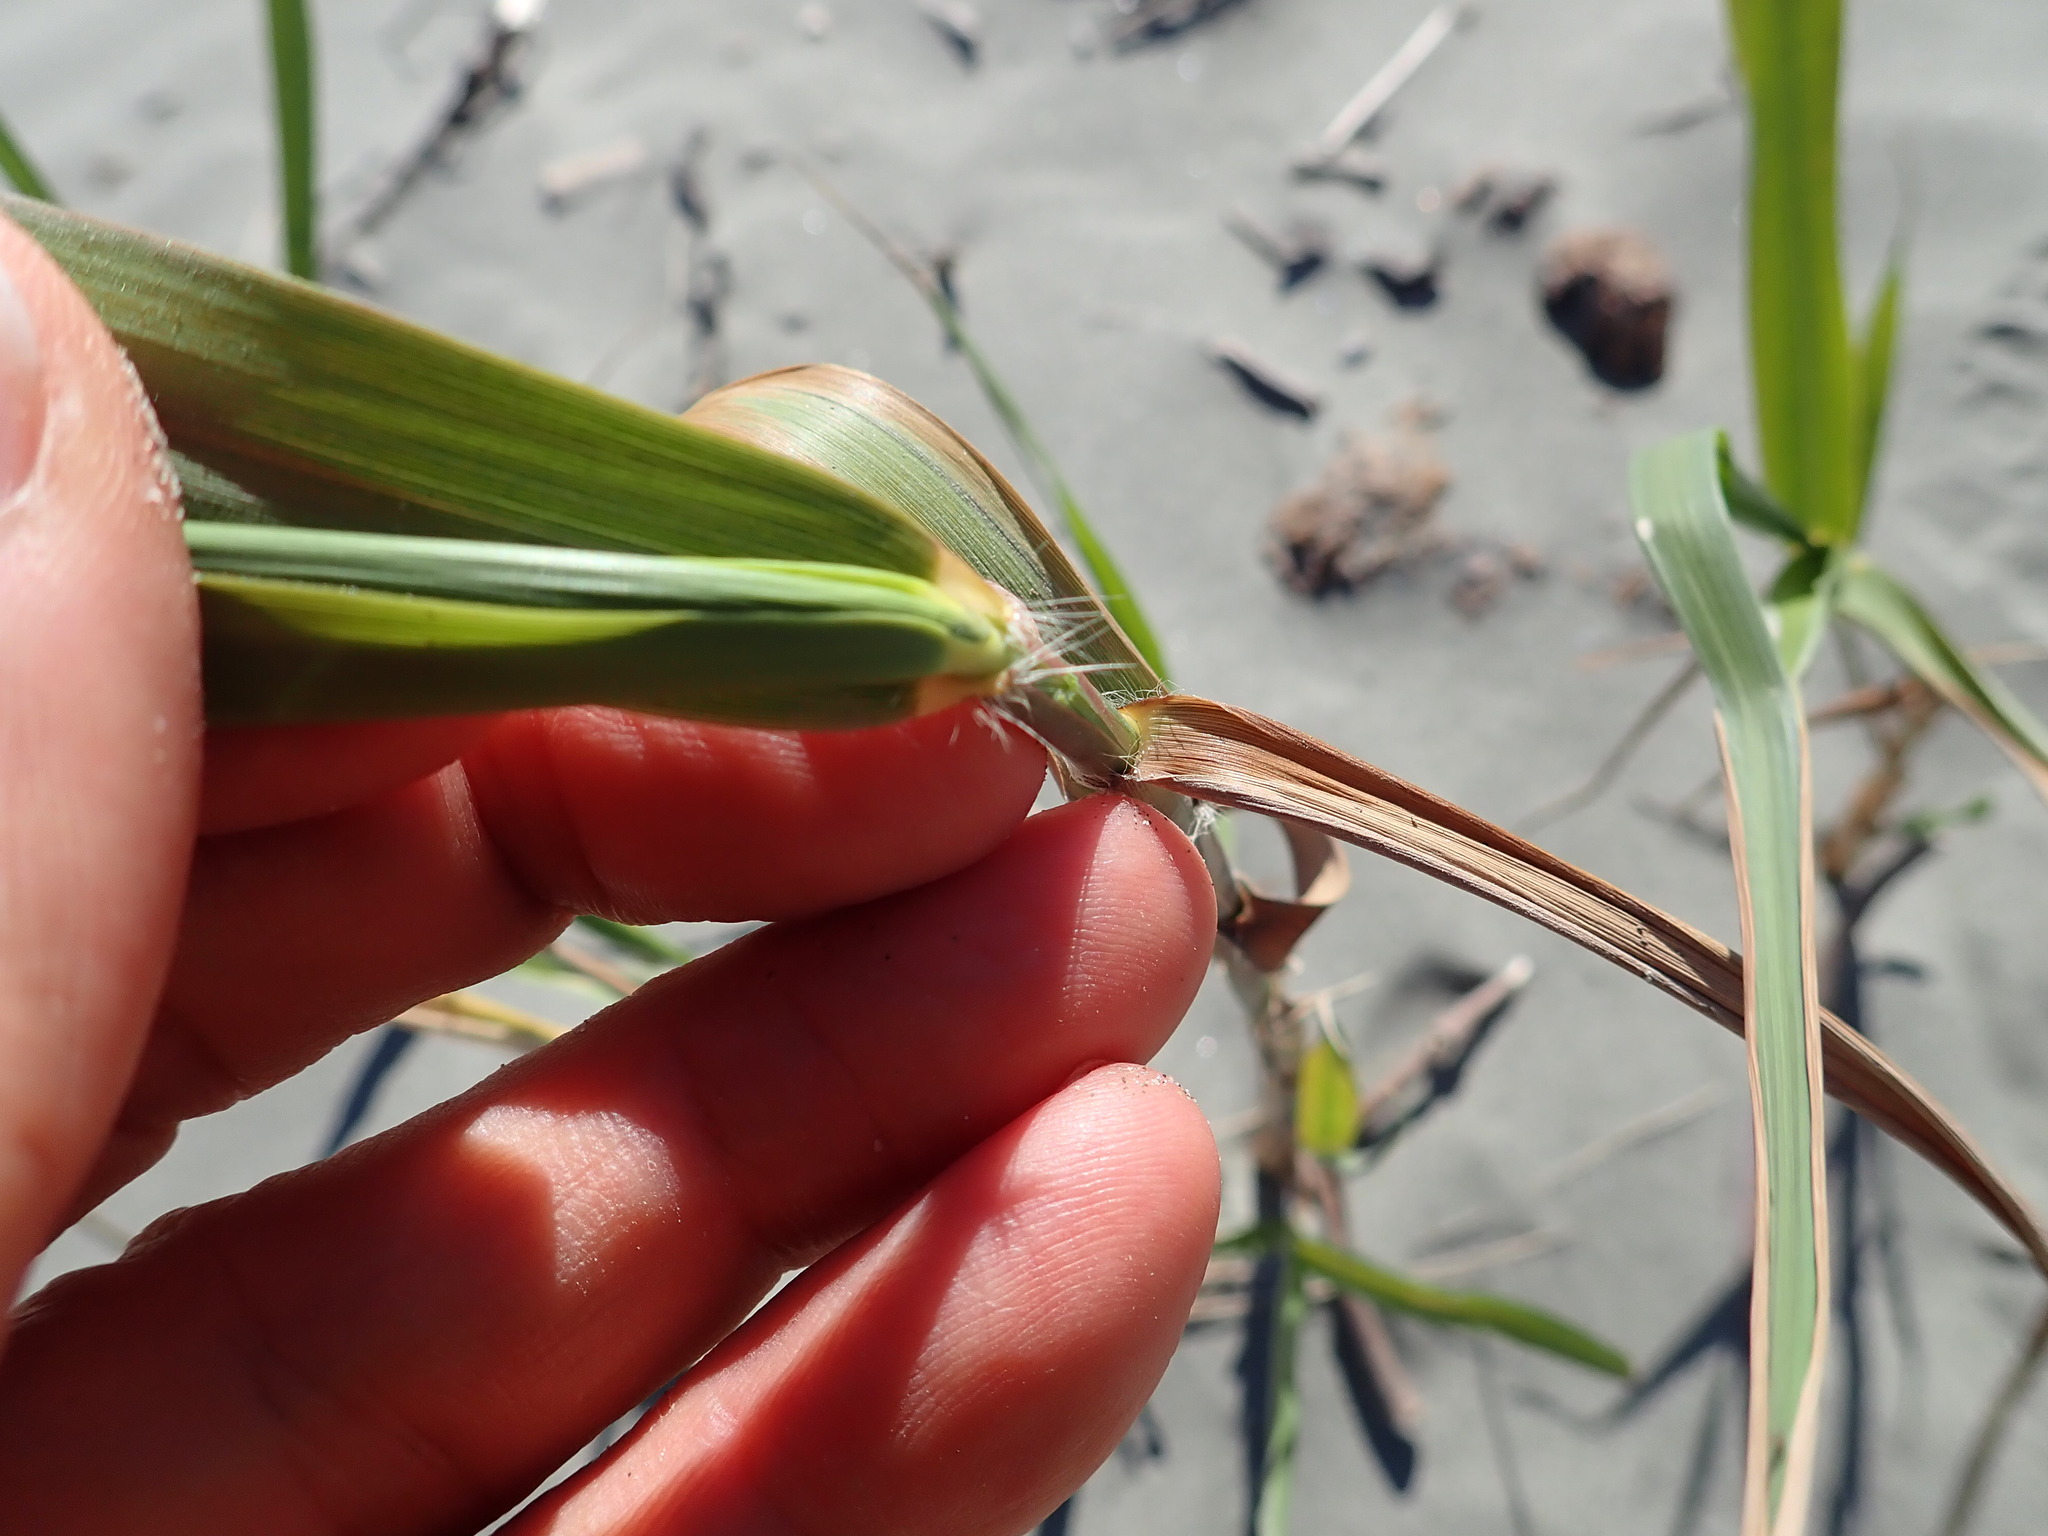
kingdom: Plantae
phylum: Tracheophyta
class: Liliopsida
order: Poales
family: Poaceae
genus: Phragmites
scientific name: Phragmites karka
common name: Tropical reed
